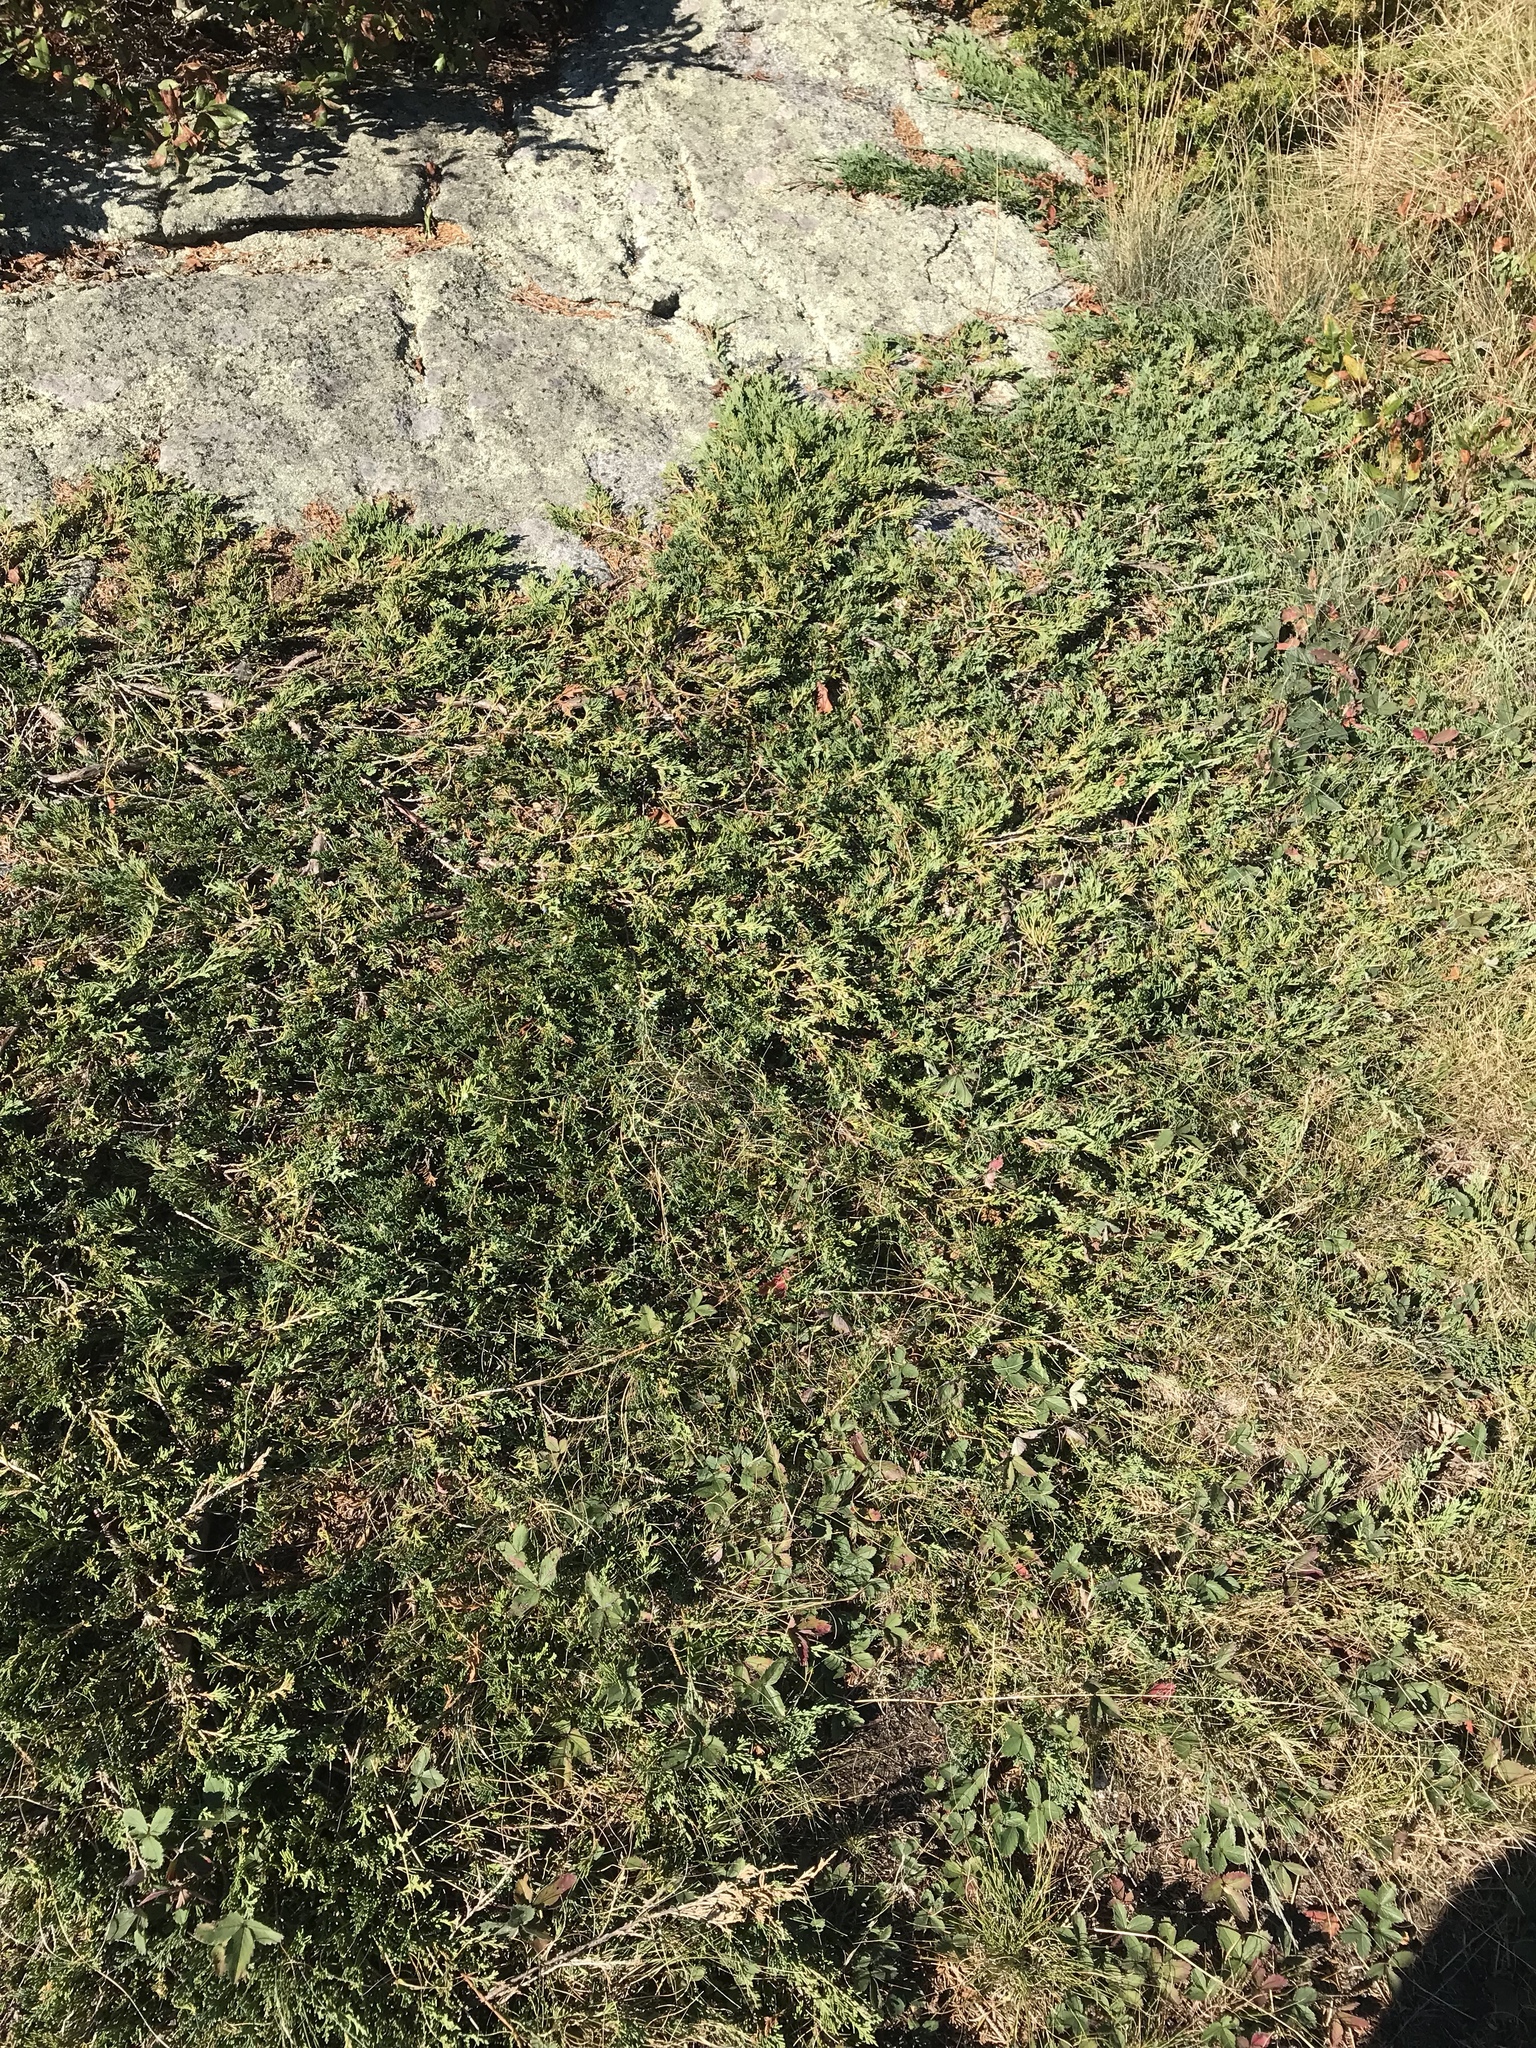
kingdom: Plantae
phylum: Tracheophyta
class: Pinopsida
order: Pinales
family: Cupressaceae
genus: Juniperus
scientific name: Juniperus horizontalis
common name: Creeping juniper
